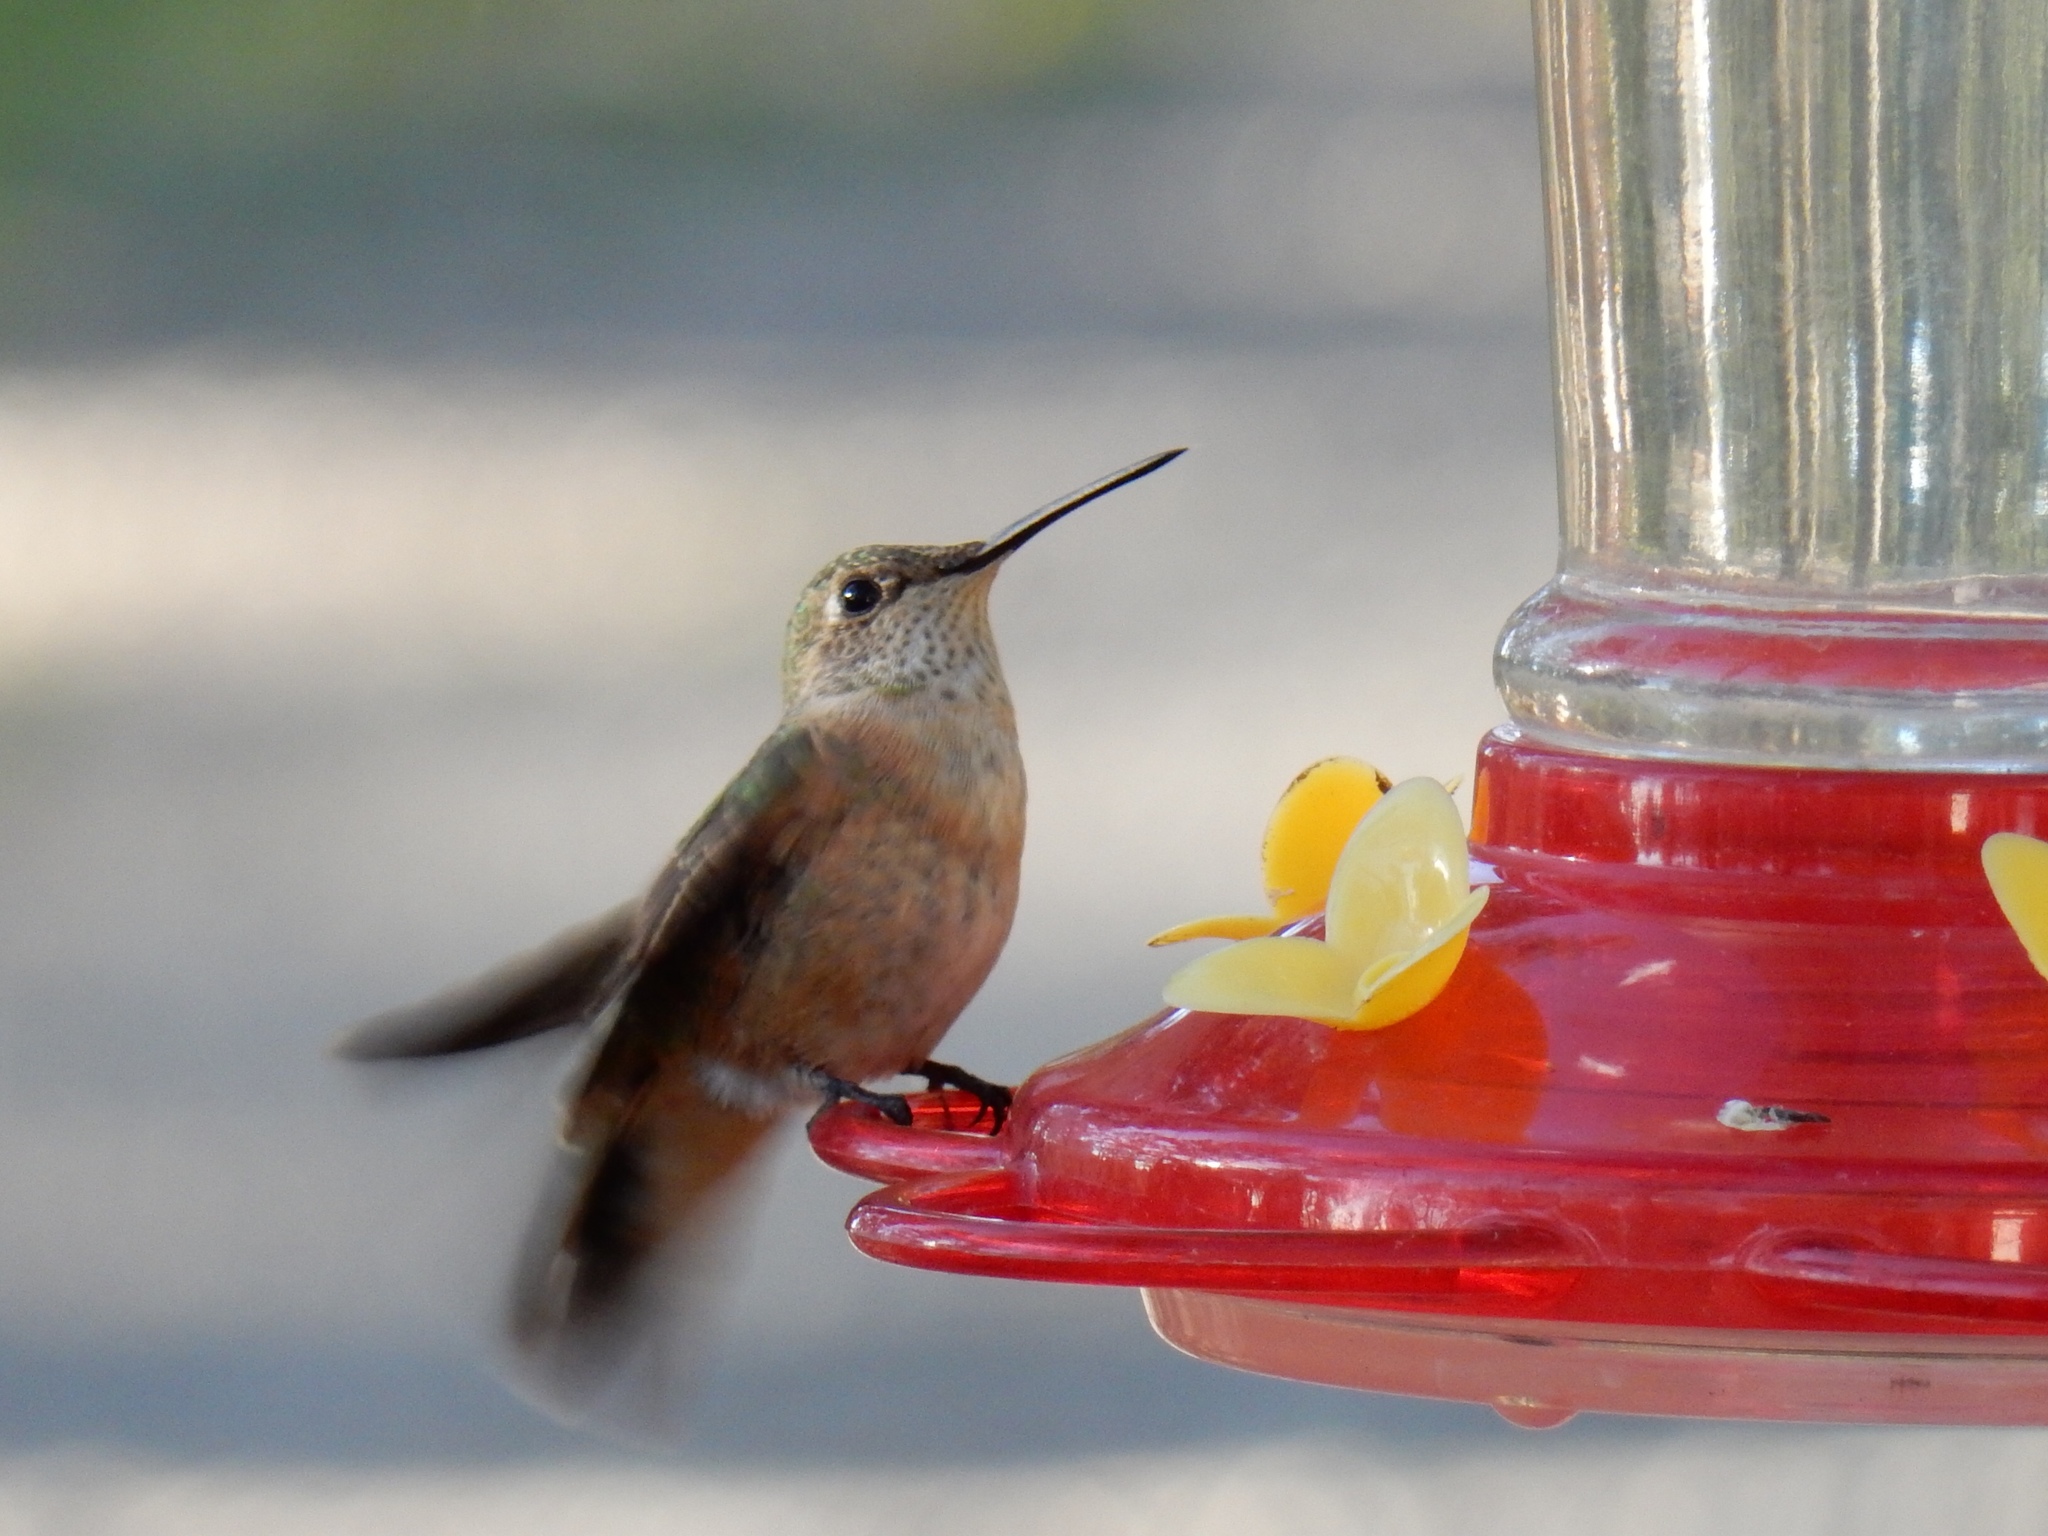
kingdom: Animalia
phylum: Chordata
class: Aves
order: Apodiformes
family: Trochilidae
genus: Selasphorus
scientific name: Selasphorus platycercus
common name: Broad-tailed hummingbird
